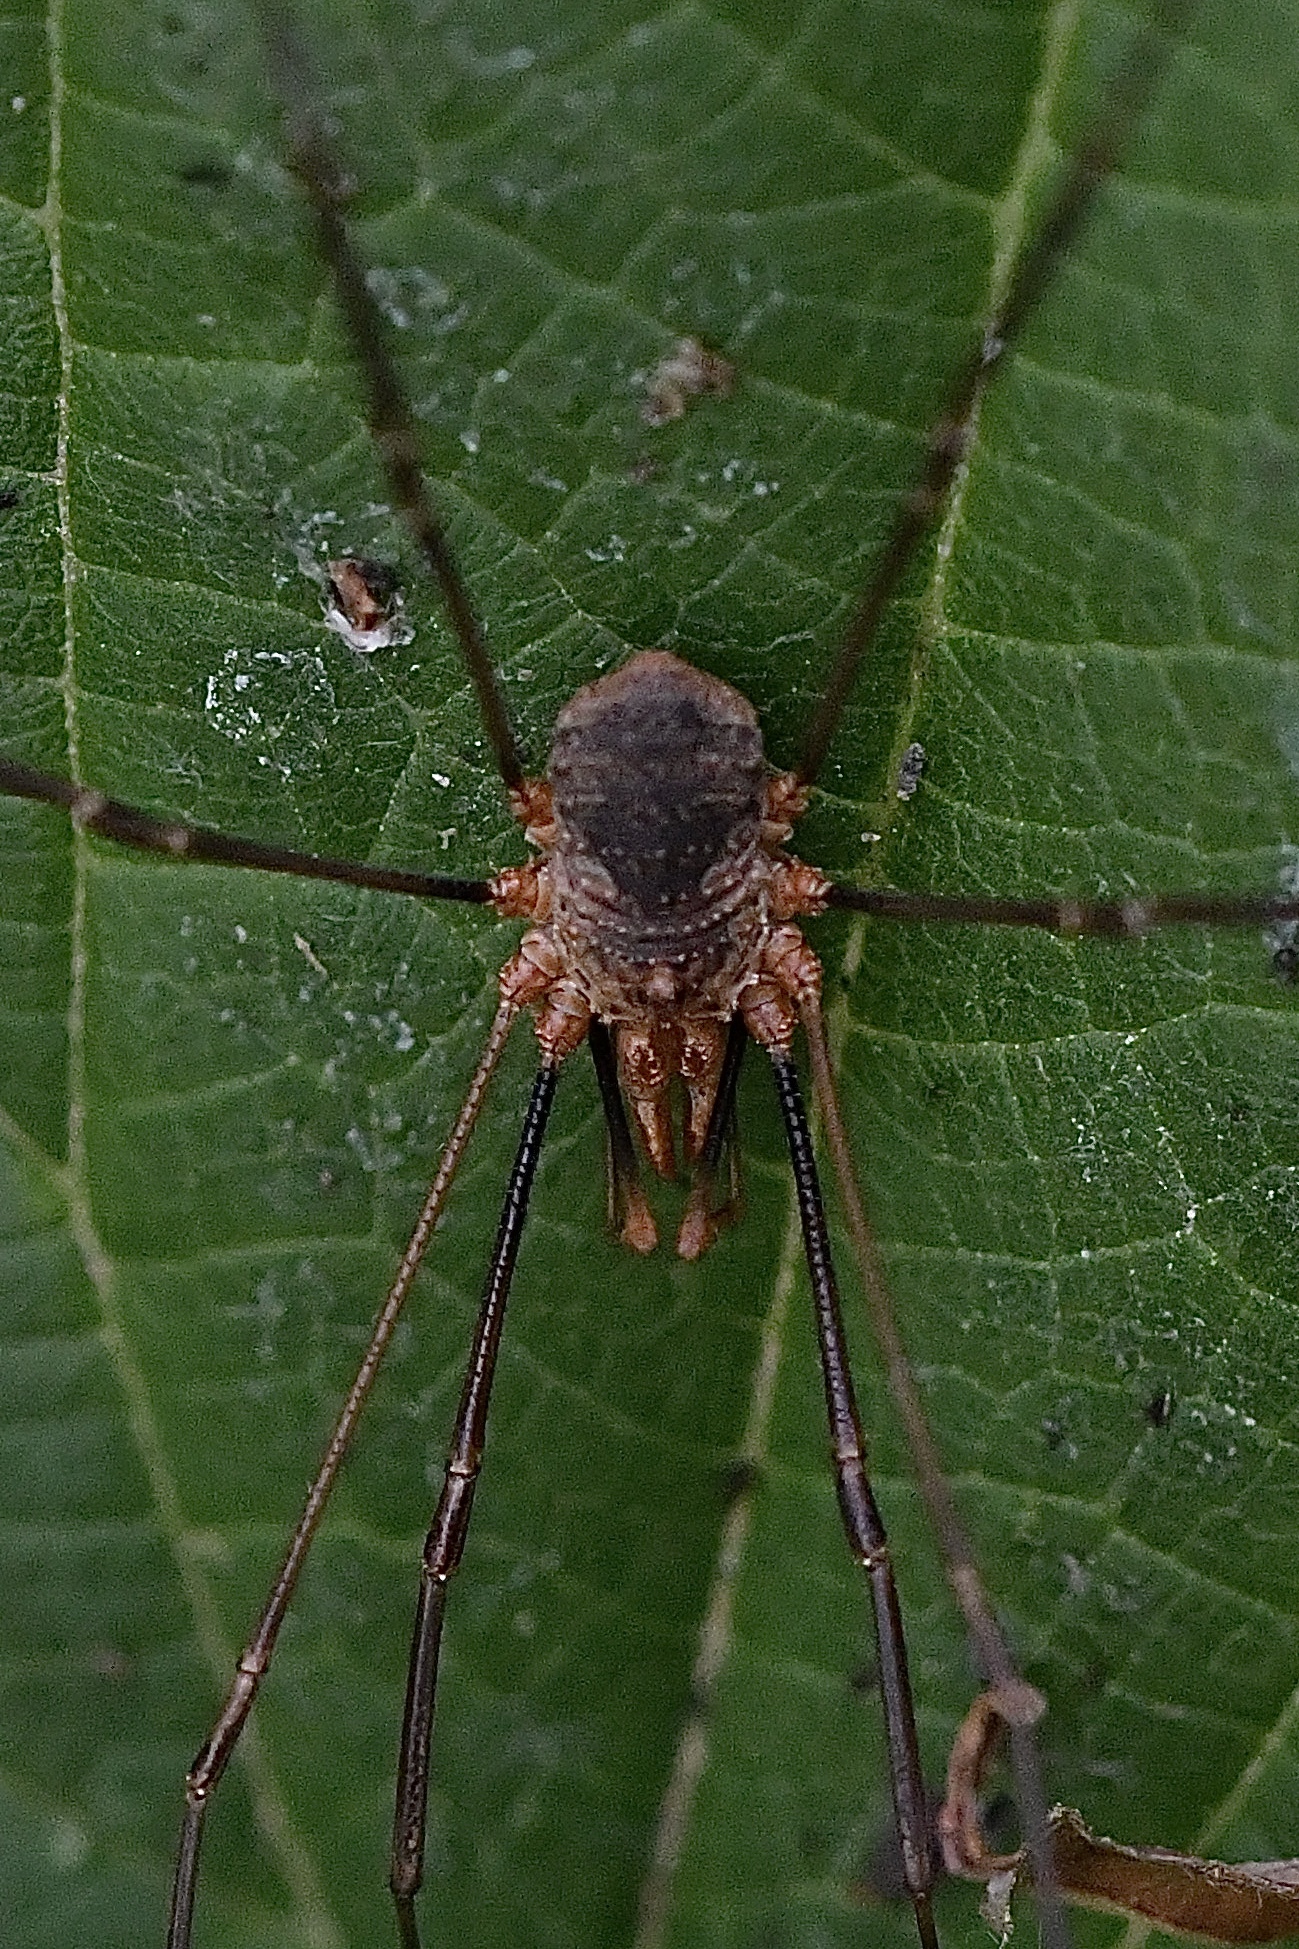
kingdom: Animalia
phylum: Arthropoda
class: Arachnida
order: Opiliones
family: Phalangiidae
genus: Phalangium
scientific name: Phalangium opilio
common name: Daddy longleg
